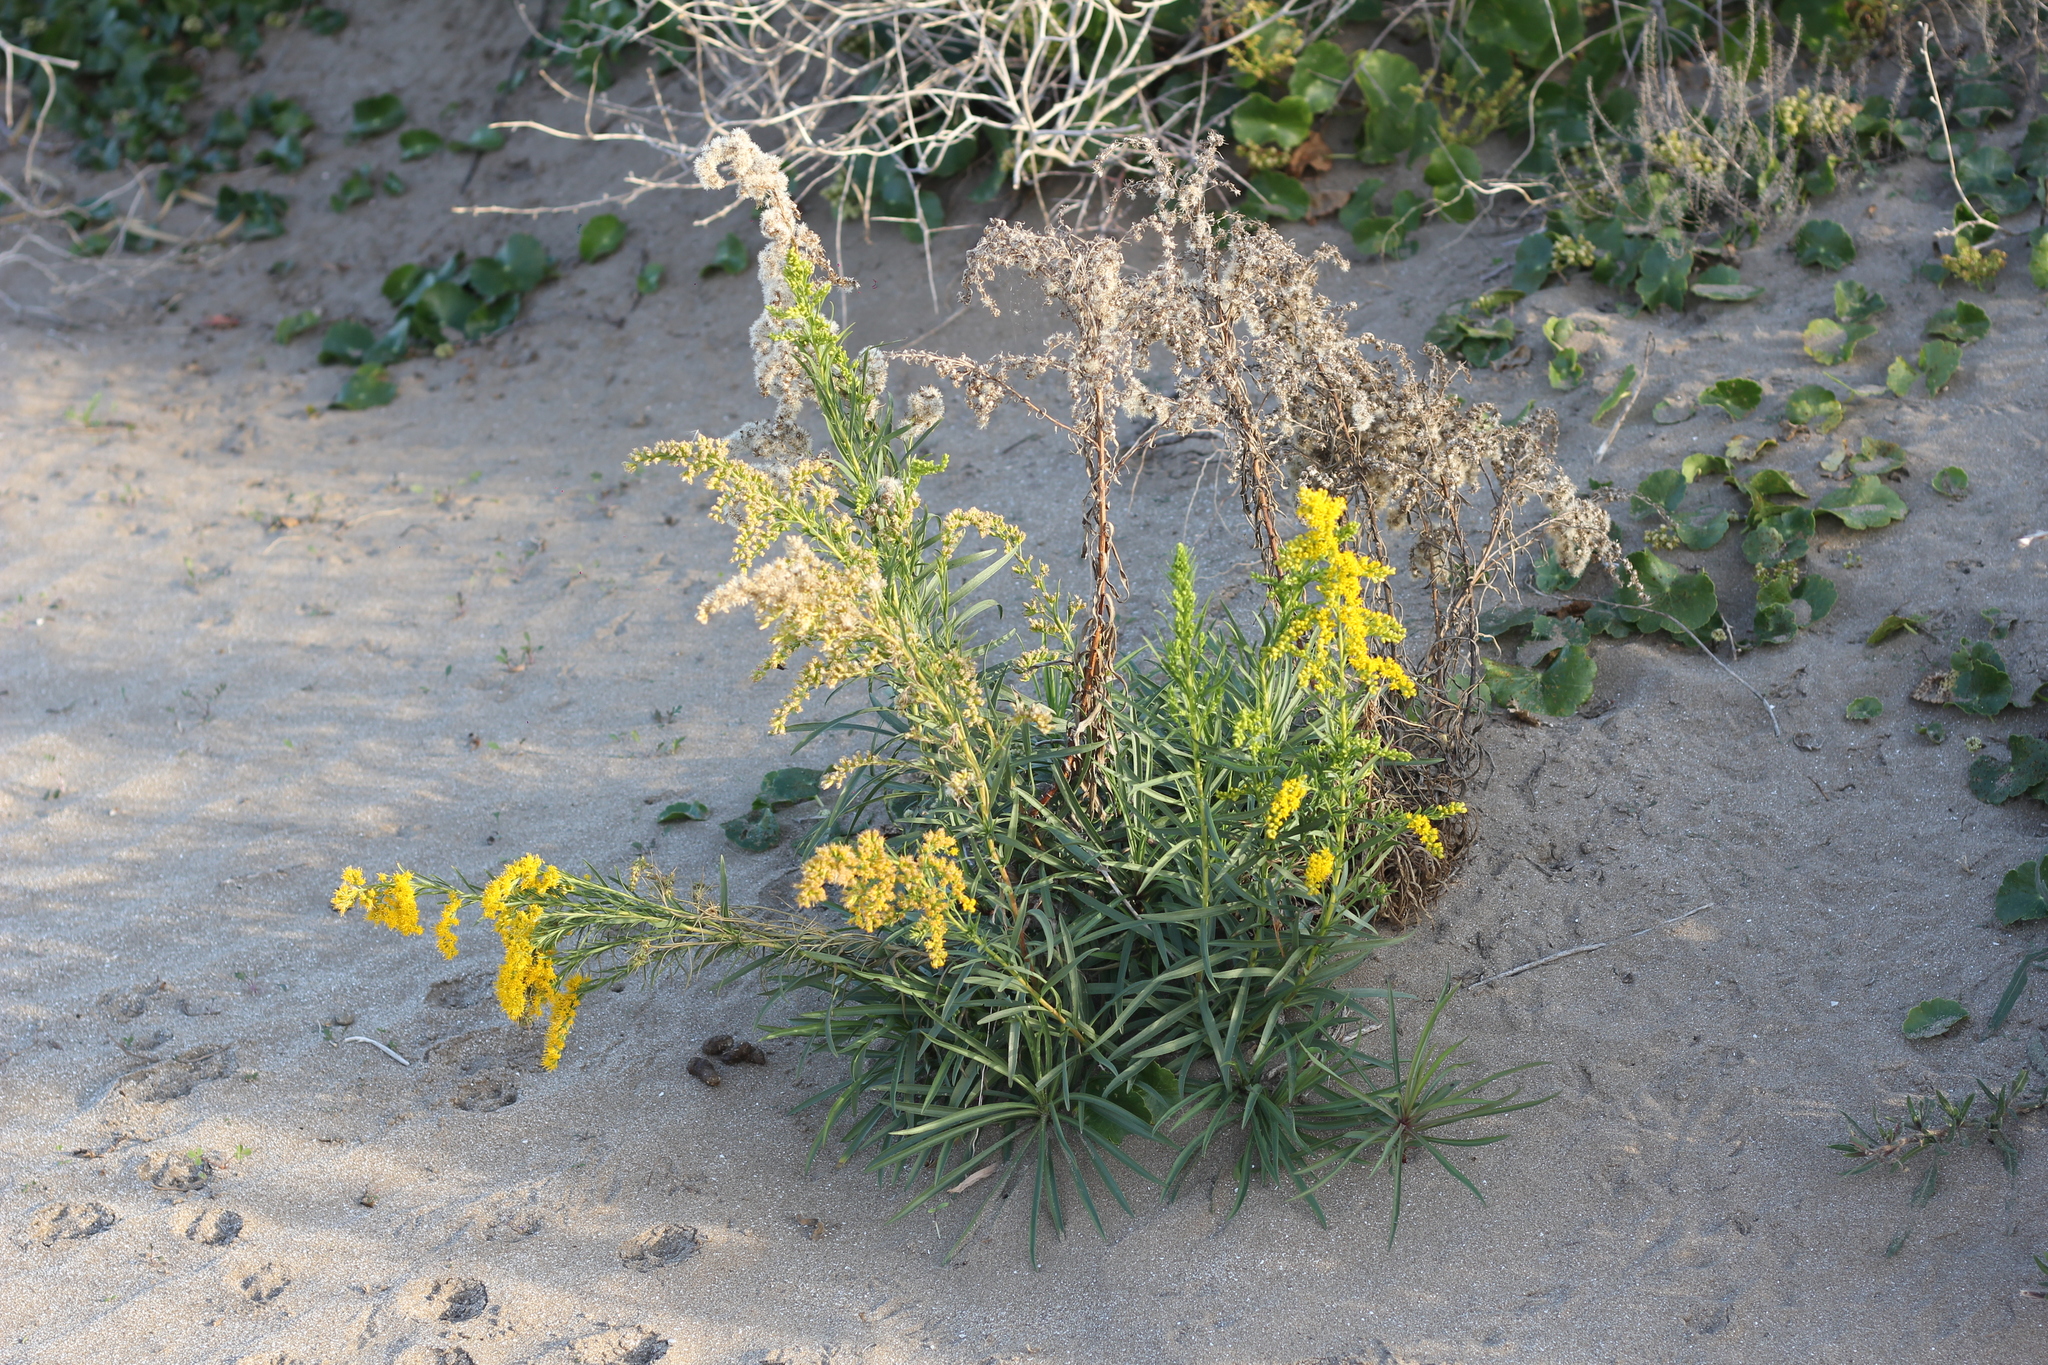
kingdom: Plantae
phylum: Tracheophyta
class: Magnoliopsida
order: Asterales
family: Asteraceae
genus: Solidago
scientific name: Solidago chilensis
